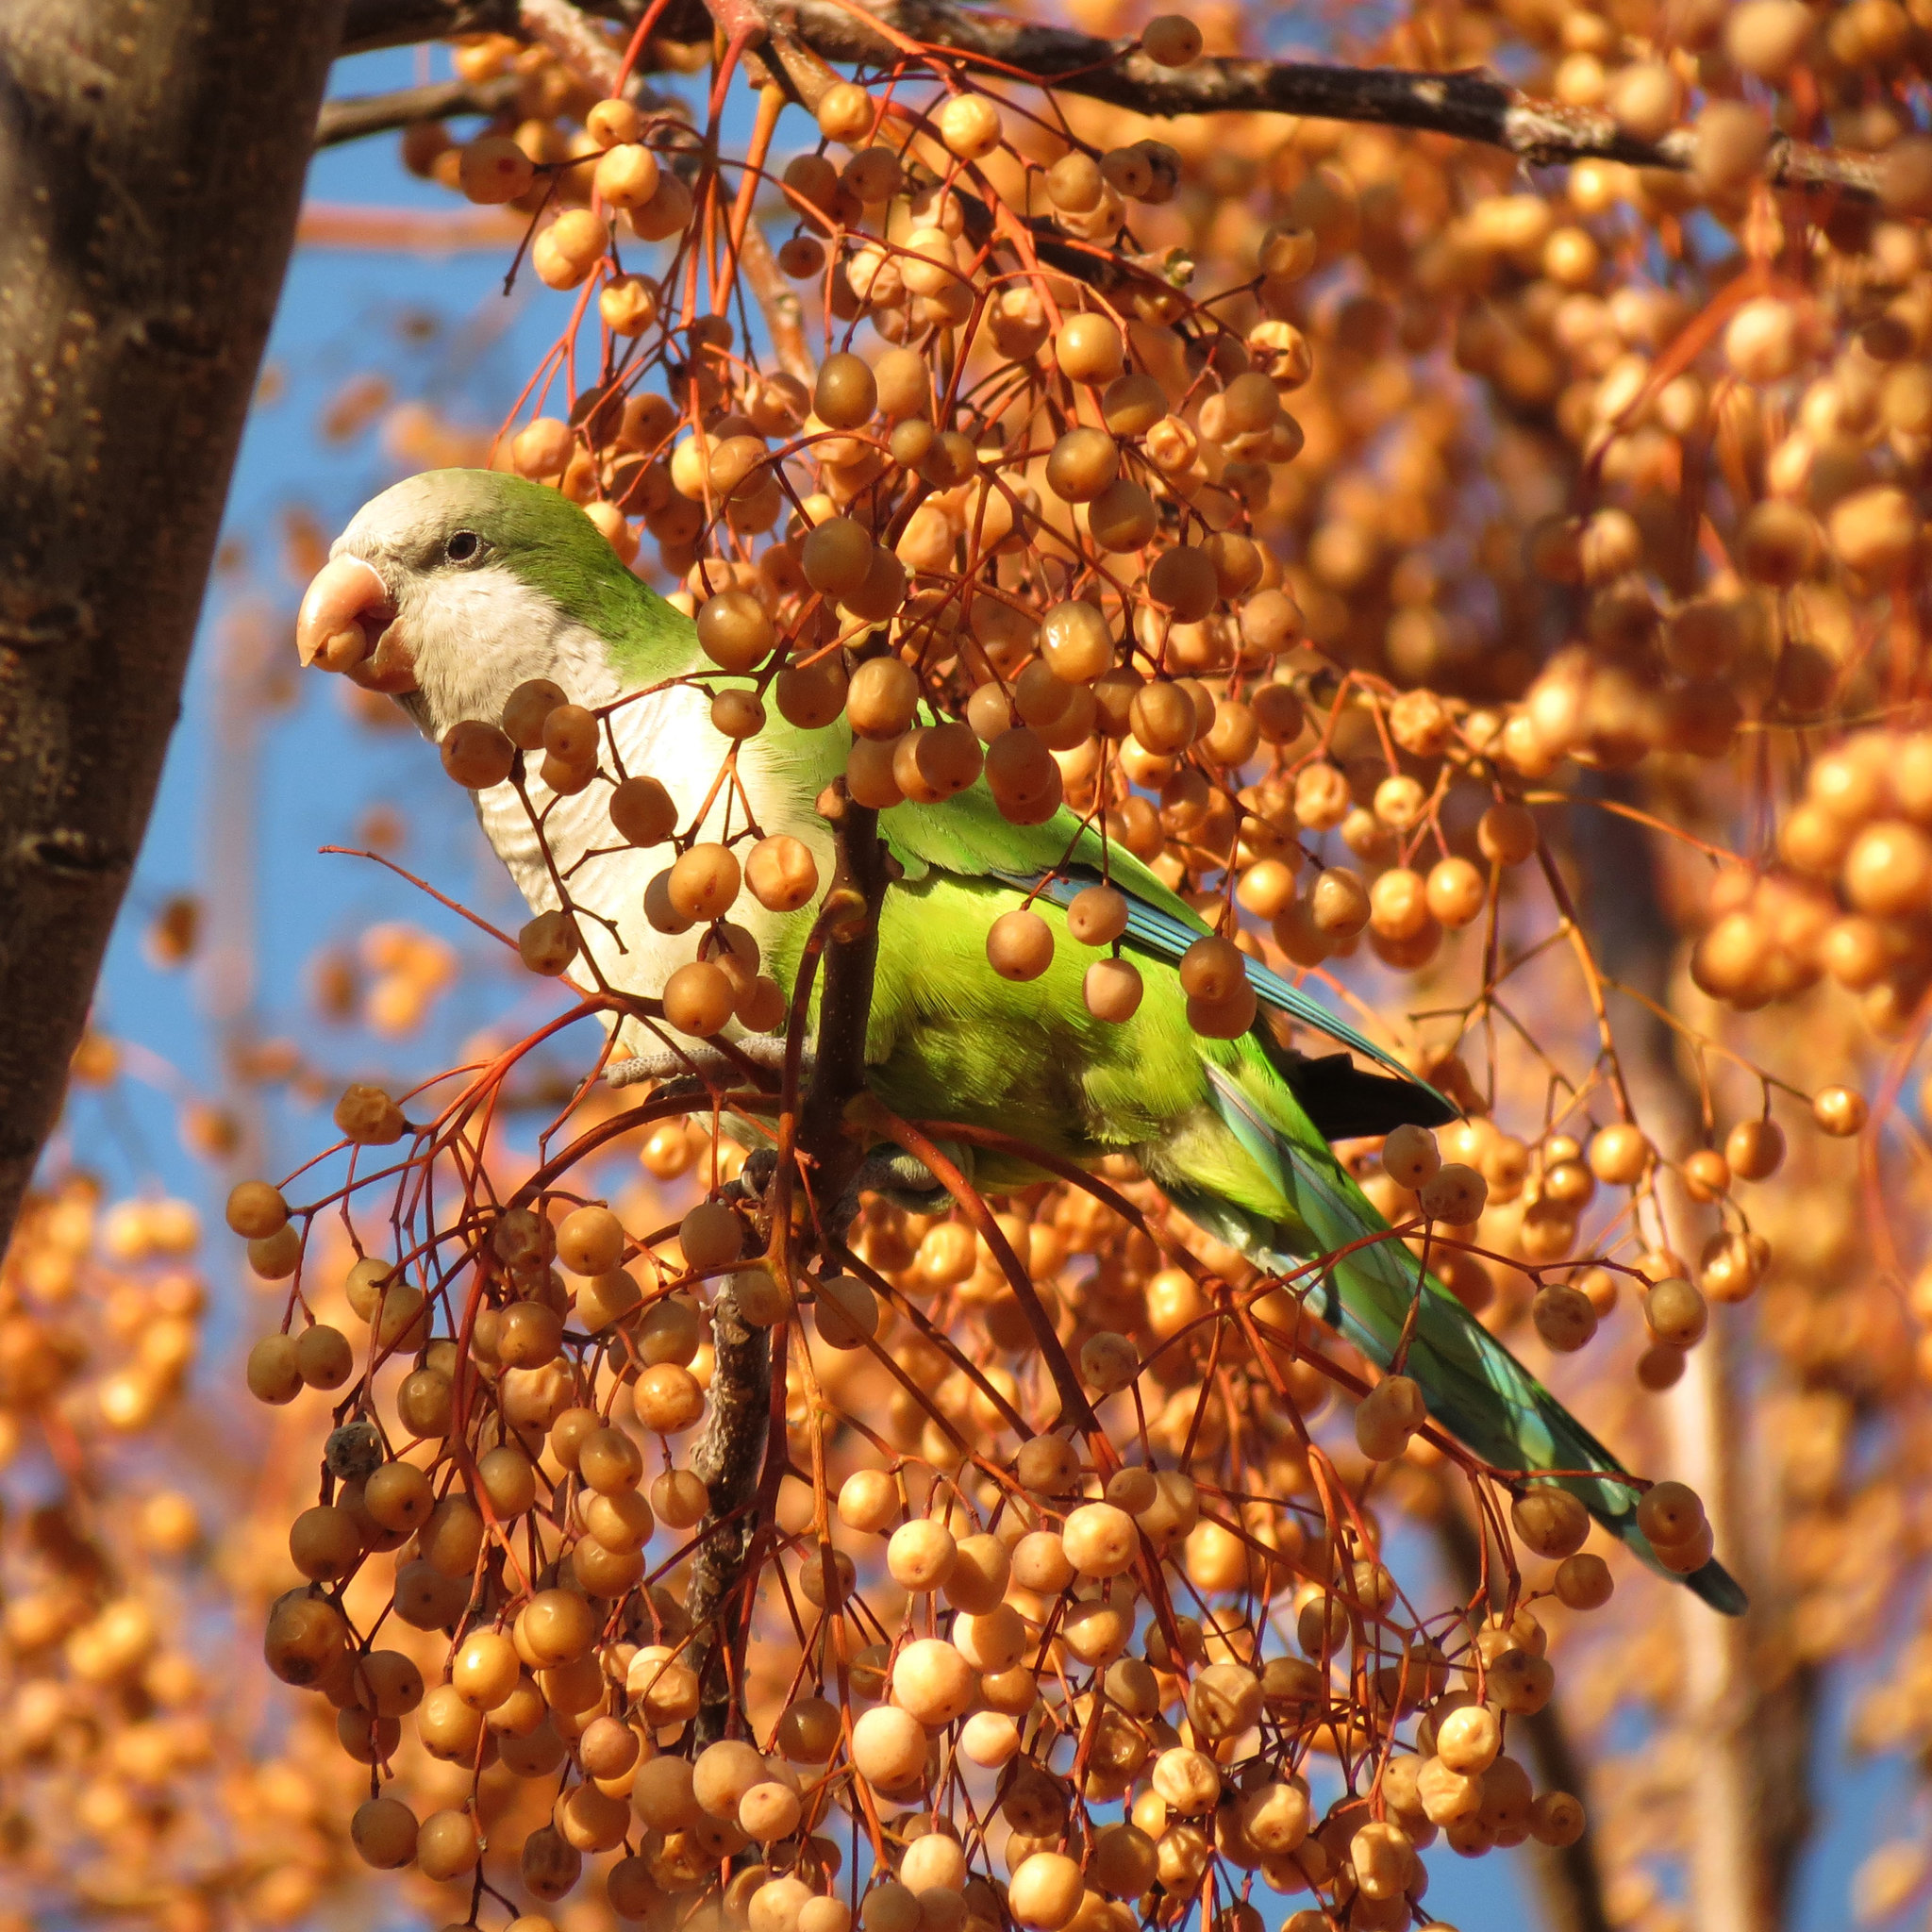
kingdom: Animalia
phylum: Chordata
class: Aves
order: Psittaciformes
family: Psittacidae
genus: Myiopsitta
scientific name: Myiopsitta monachus
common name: Monk parakeet
